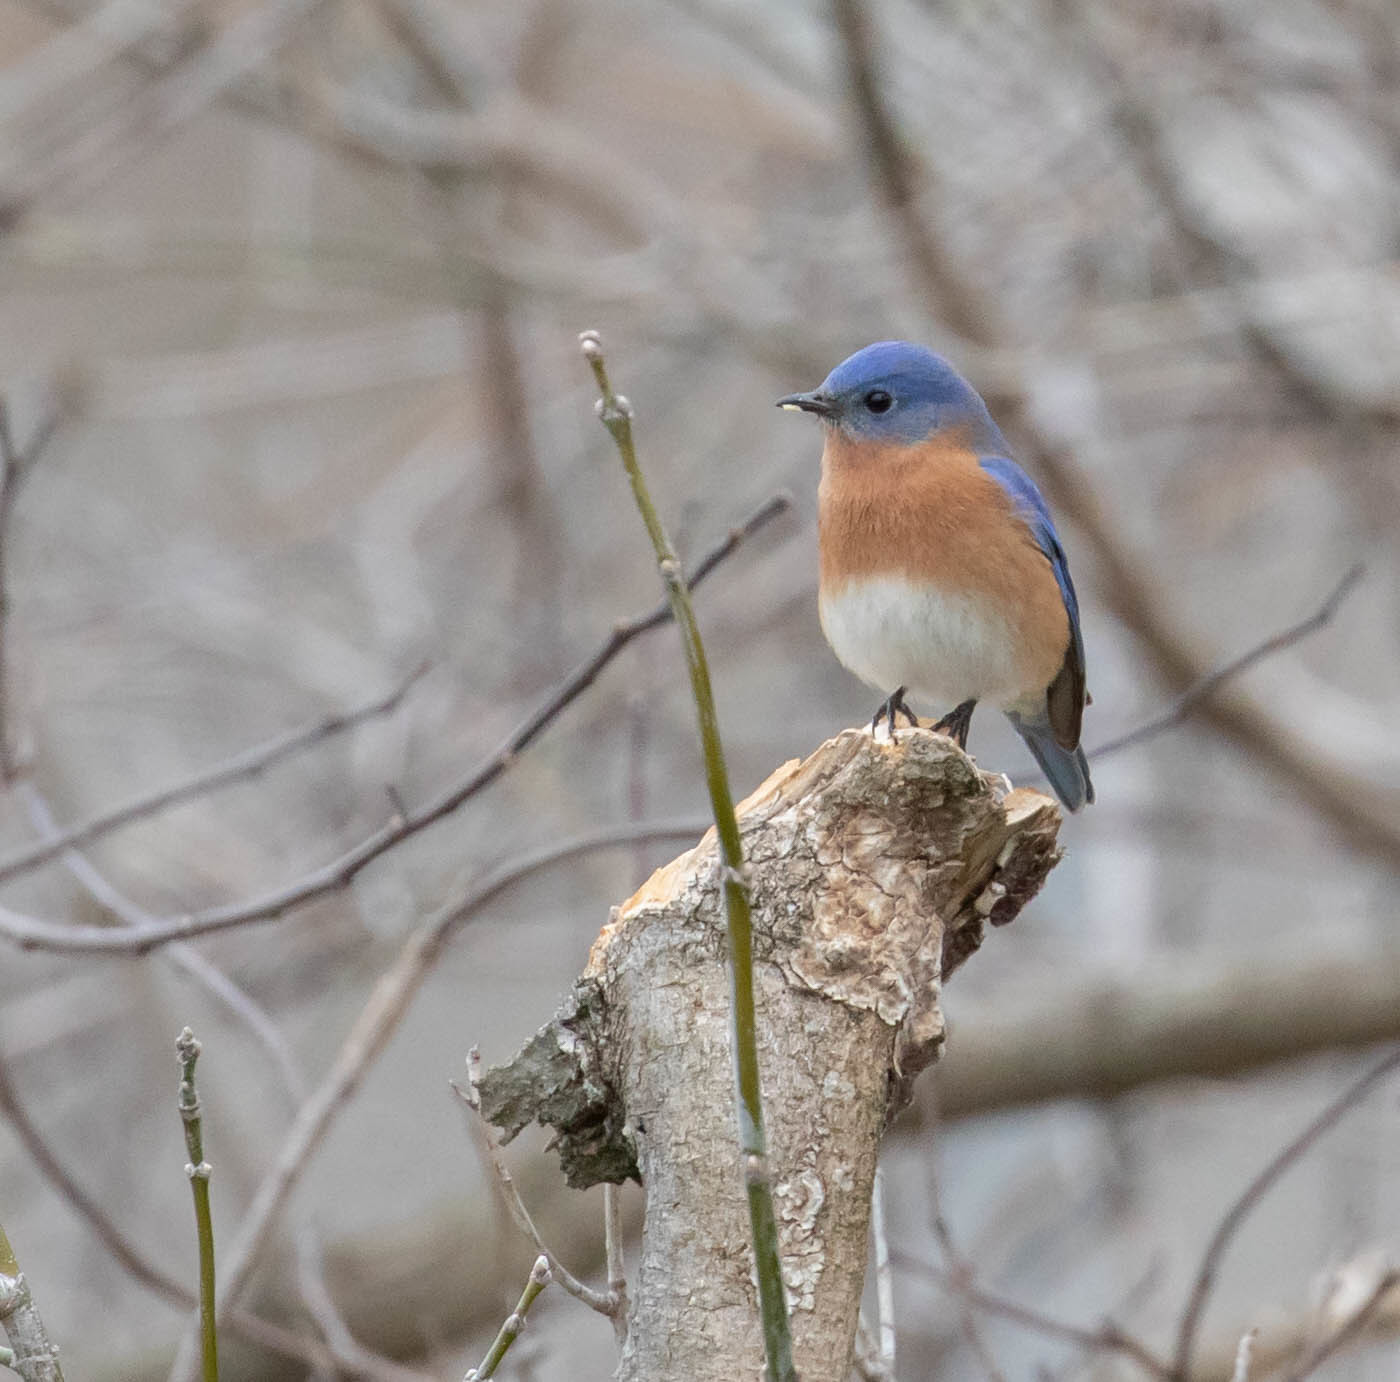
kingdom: Animalia
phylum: Chordata
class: Aves
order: Passeriformes
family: Turdidae
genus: Sialia
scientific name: Sialia sialis
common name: Eastern bluebird
